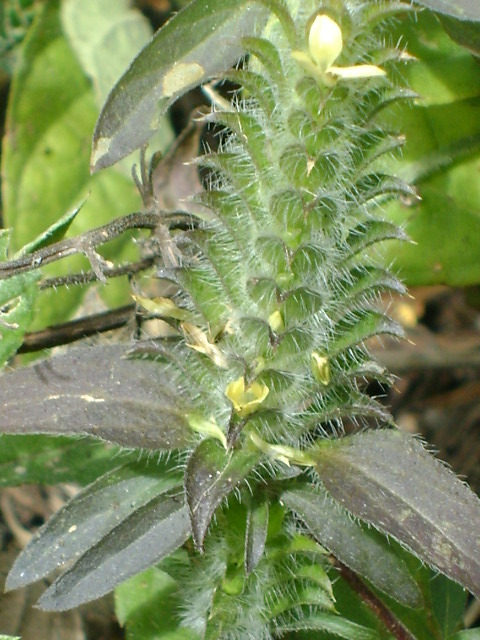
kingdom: Plantae
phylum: Tracheophyta
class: Magnoliopsida
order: Lamiales
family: Acanthaceae
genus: Tetramerium
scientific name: Tetramerium nervosum
